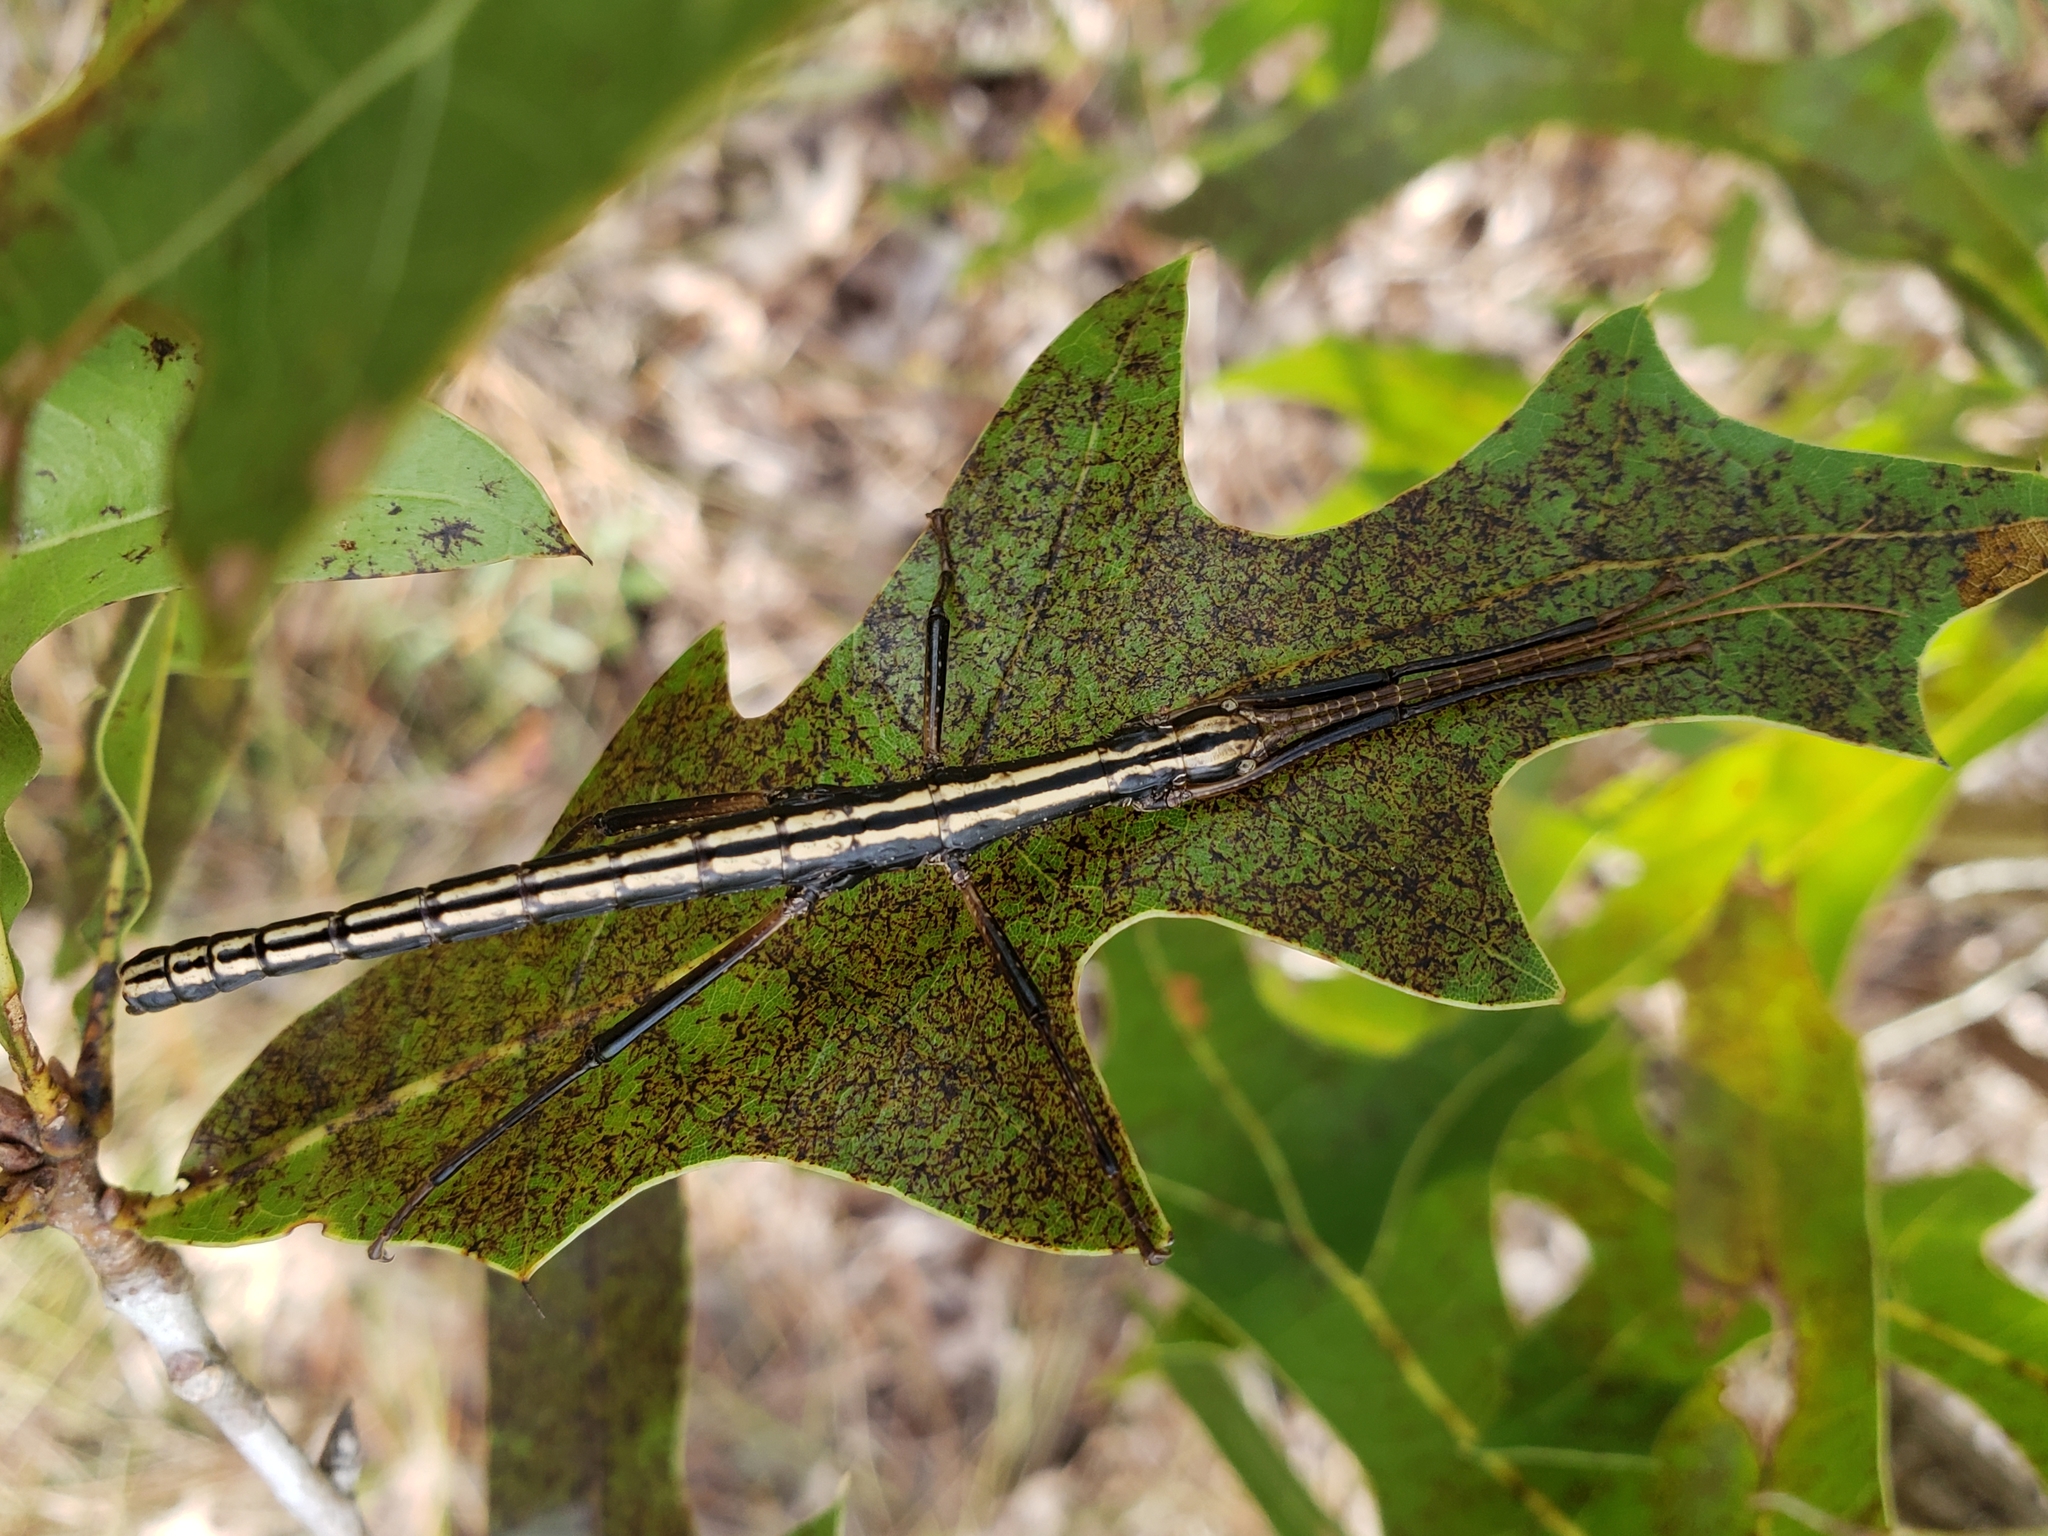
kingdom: Animalia
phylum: Arthropoda
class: Insecta
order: Phasmida
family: Pseudophasmatidae
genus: Anisomorpha
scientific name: Anisomorpha buprestoides
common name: Florida stick insect
